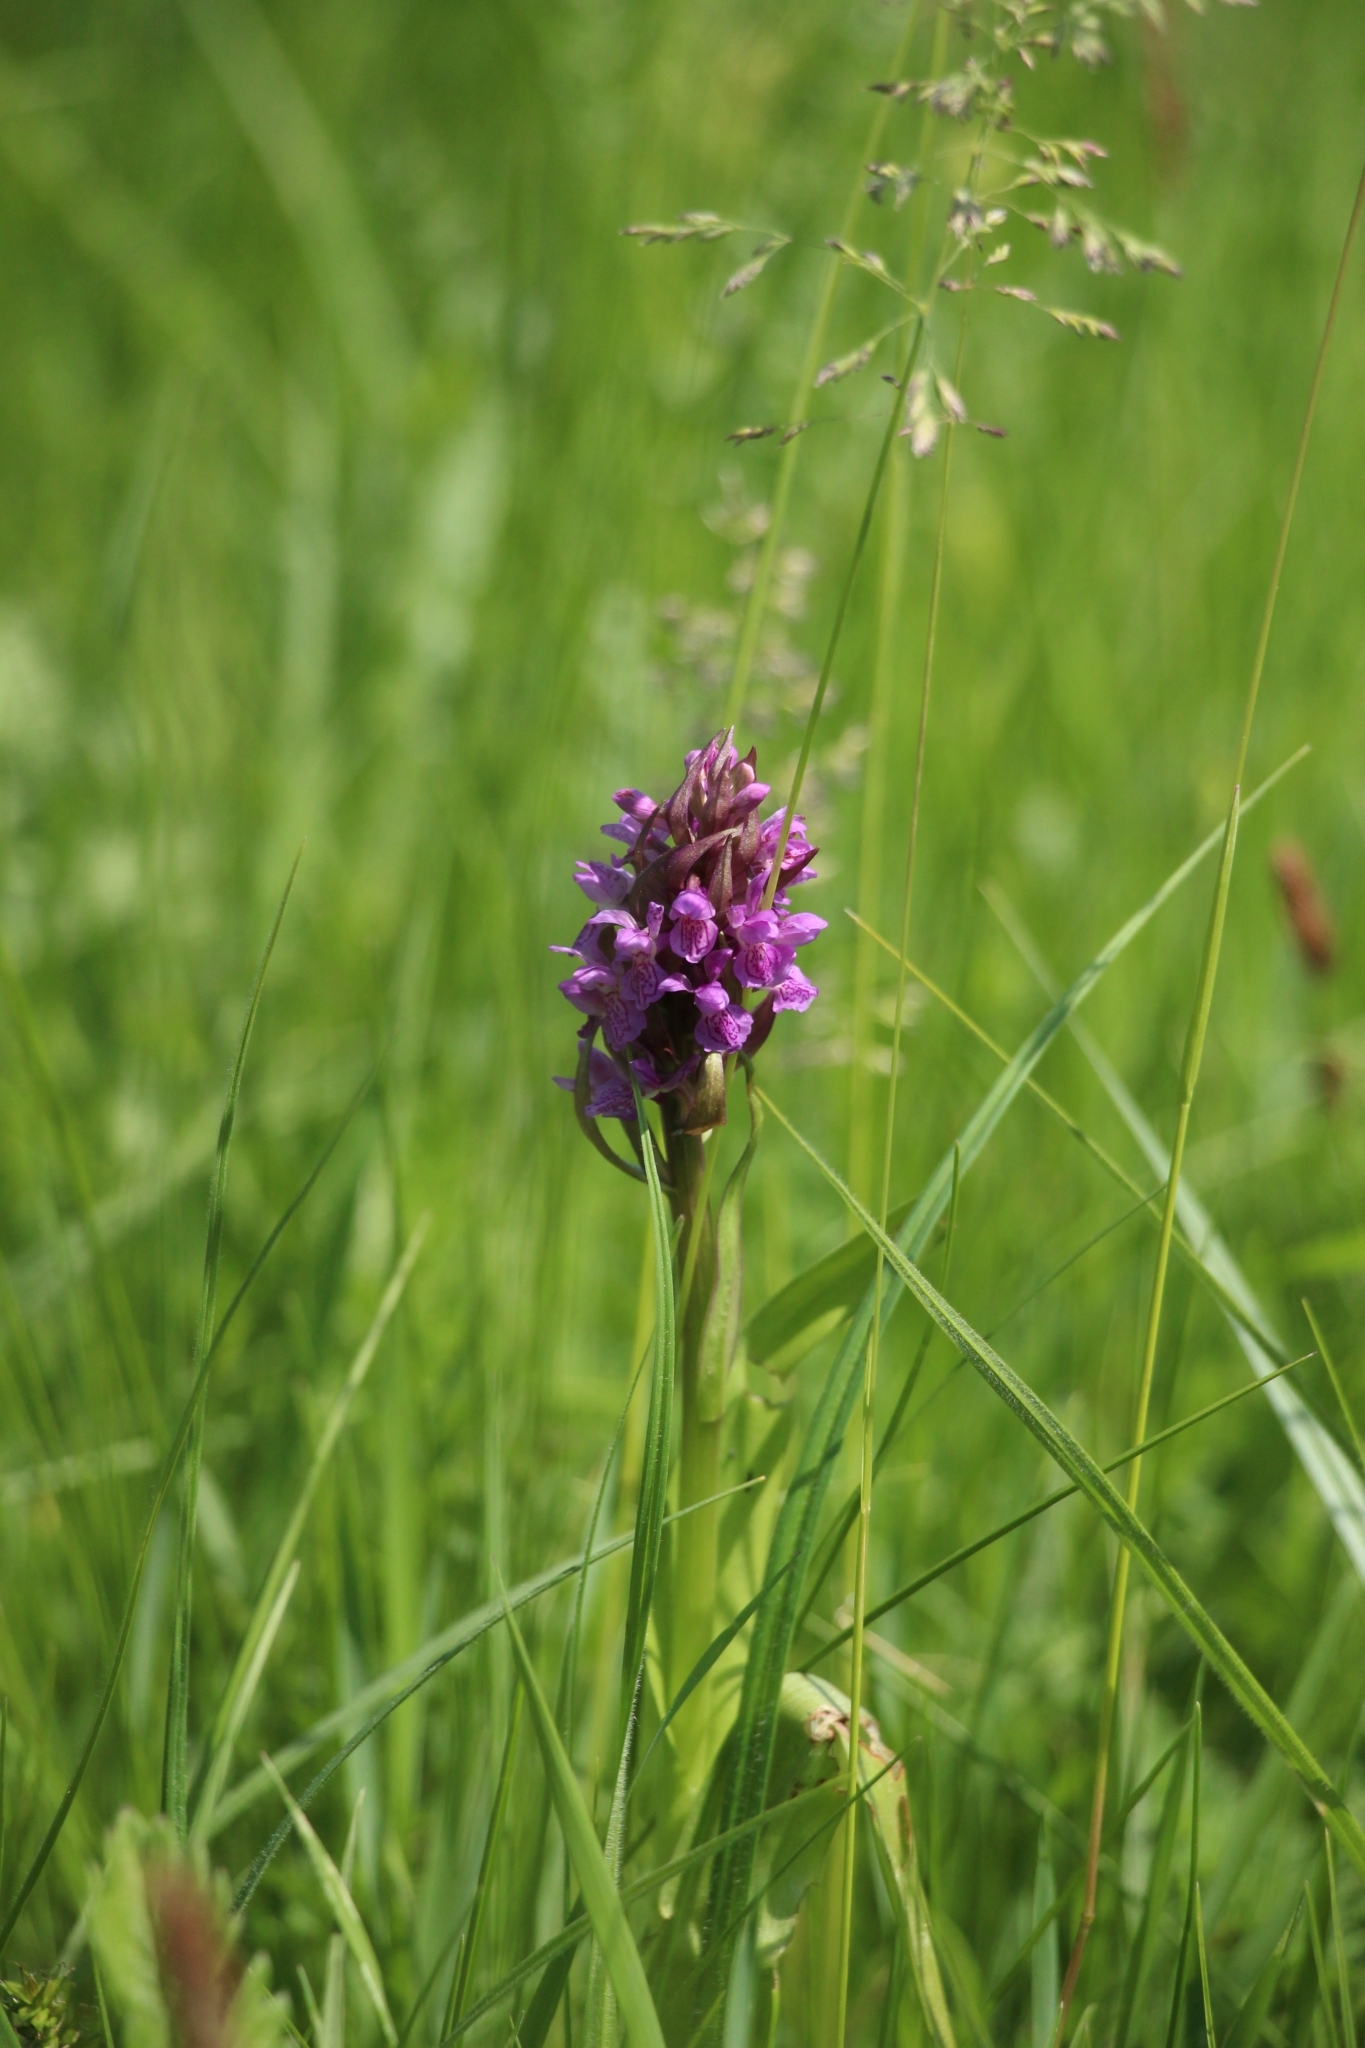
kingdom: Plantae
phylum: Tracheophyta
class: Liliopsida
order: Asparagales
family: Orchidaceae
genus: Dactylorhiza
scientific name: Dactylorhiza incarnata
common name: Early marsh-orchid
